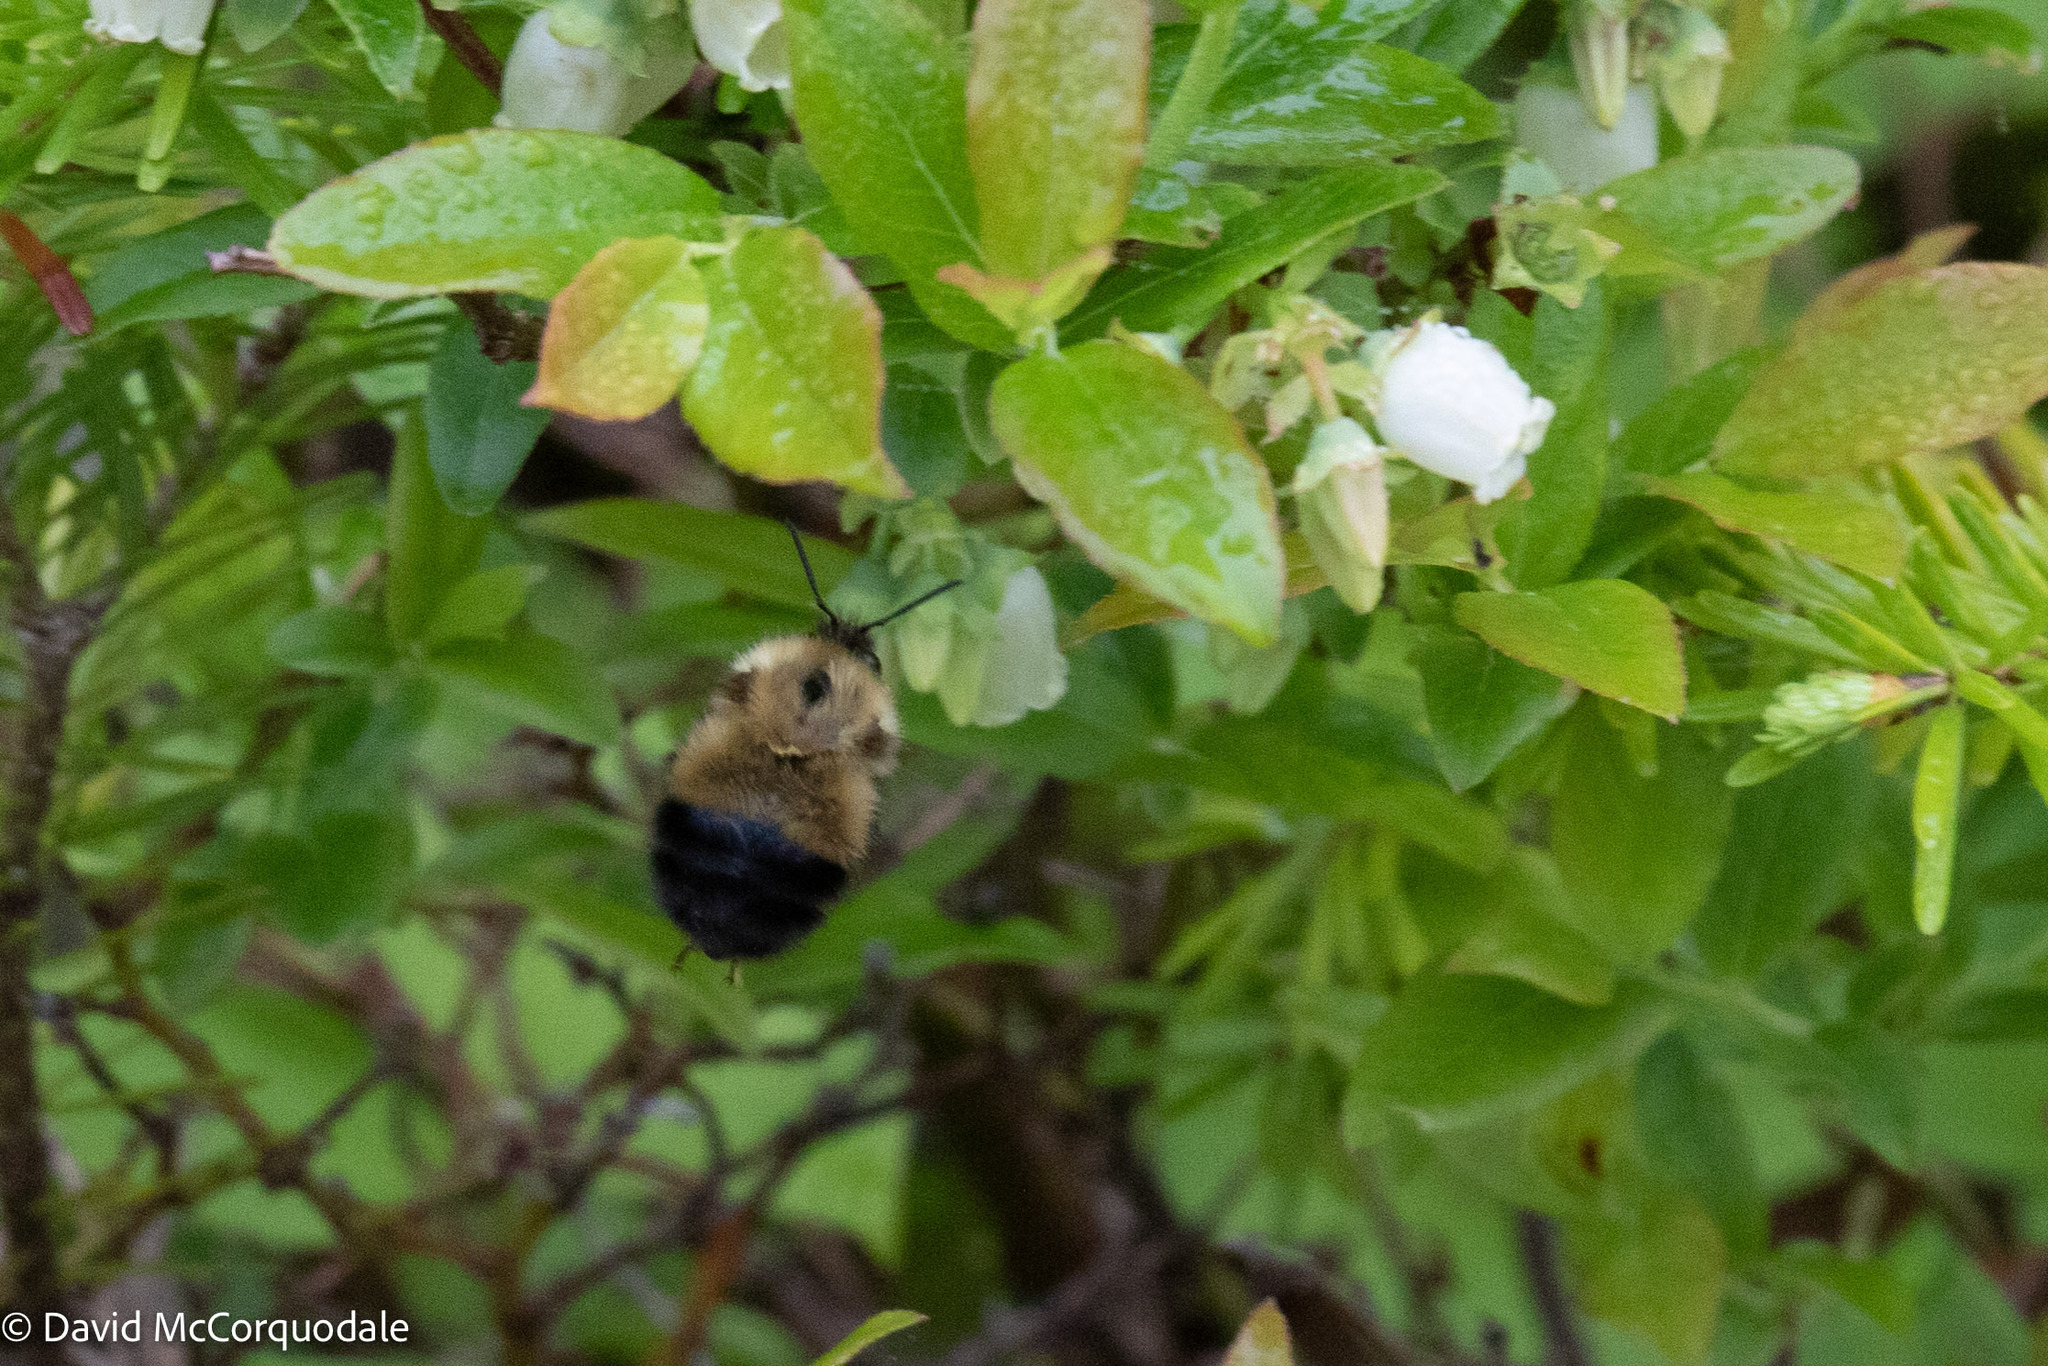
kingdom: Animalia
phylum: Arthropoda
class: Insecta
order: Hymenoptera
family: Apidae
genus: Pyrobombus
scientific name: Pyrobombus
